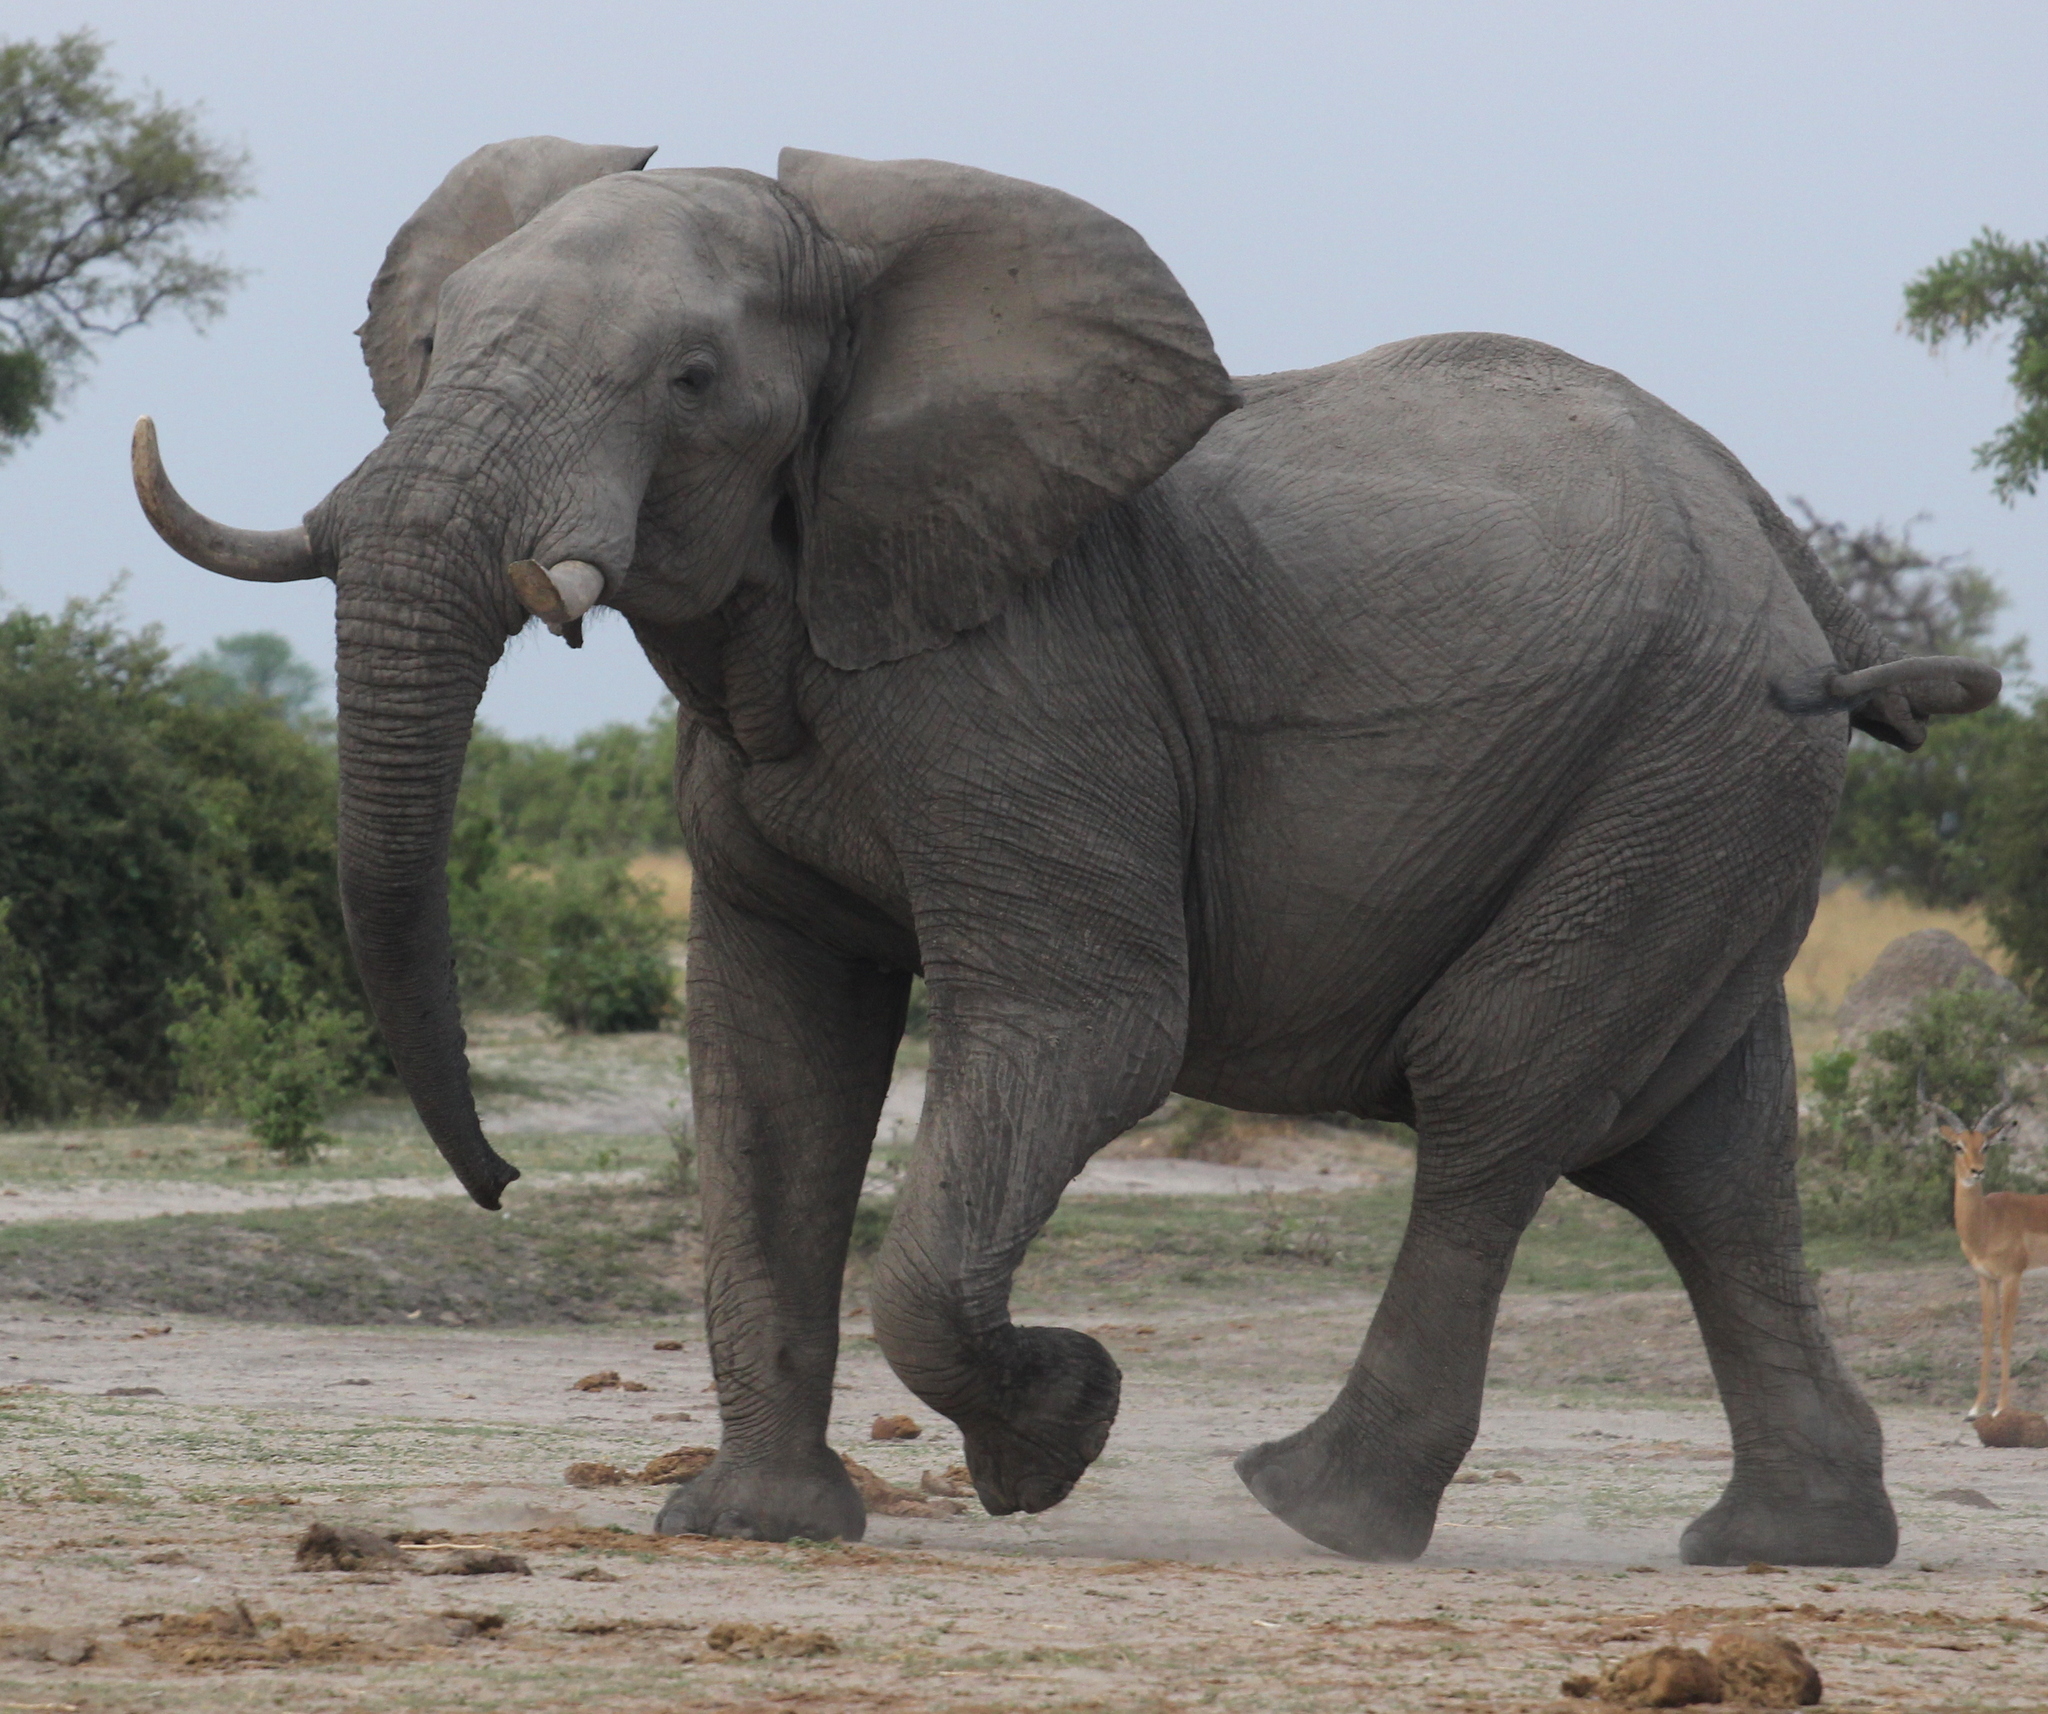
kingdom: Animalia
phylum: Chordata
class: Mammalia
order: Proboscidea
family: Elephantidae
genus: Loxodonta
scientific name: Loxodonta africana
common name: African elephant
